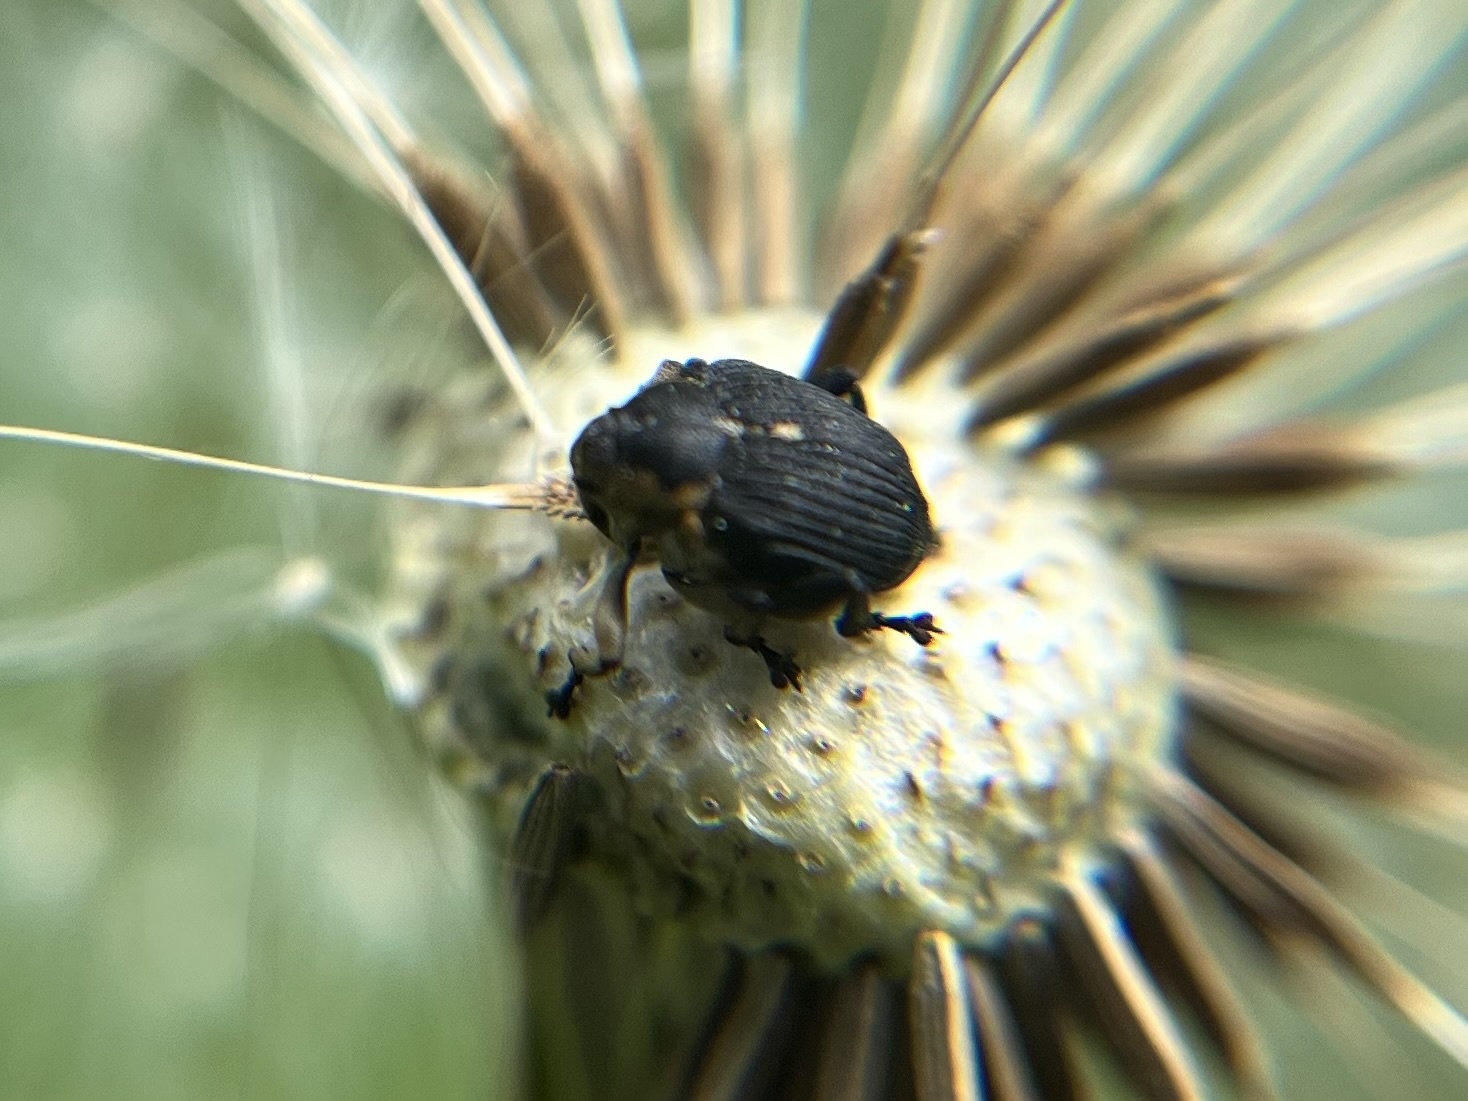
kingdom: Animalia
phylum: Arthropoda
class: Insecta
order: Coleoptera
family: Curculionidae
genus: Mononychus
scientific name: Mononychus punctumalbum
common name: Iris weevil
